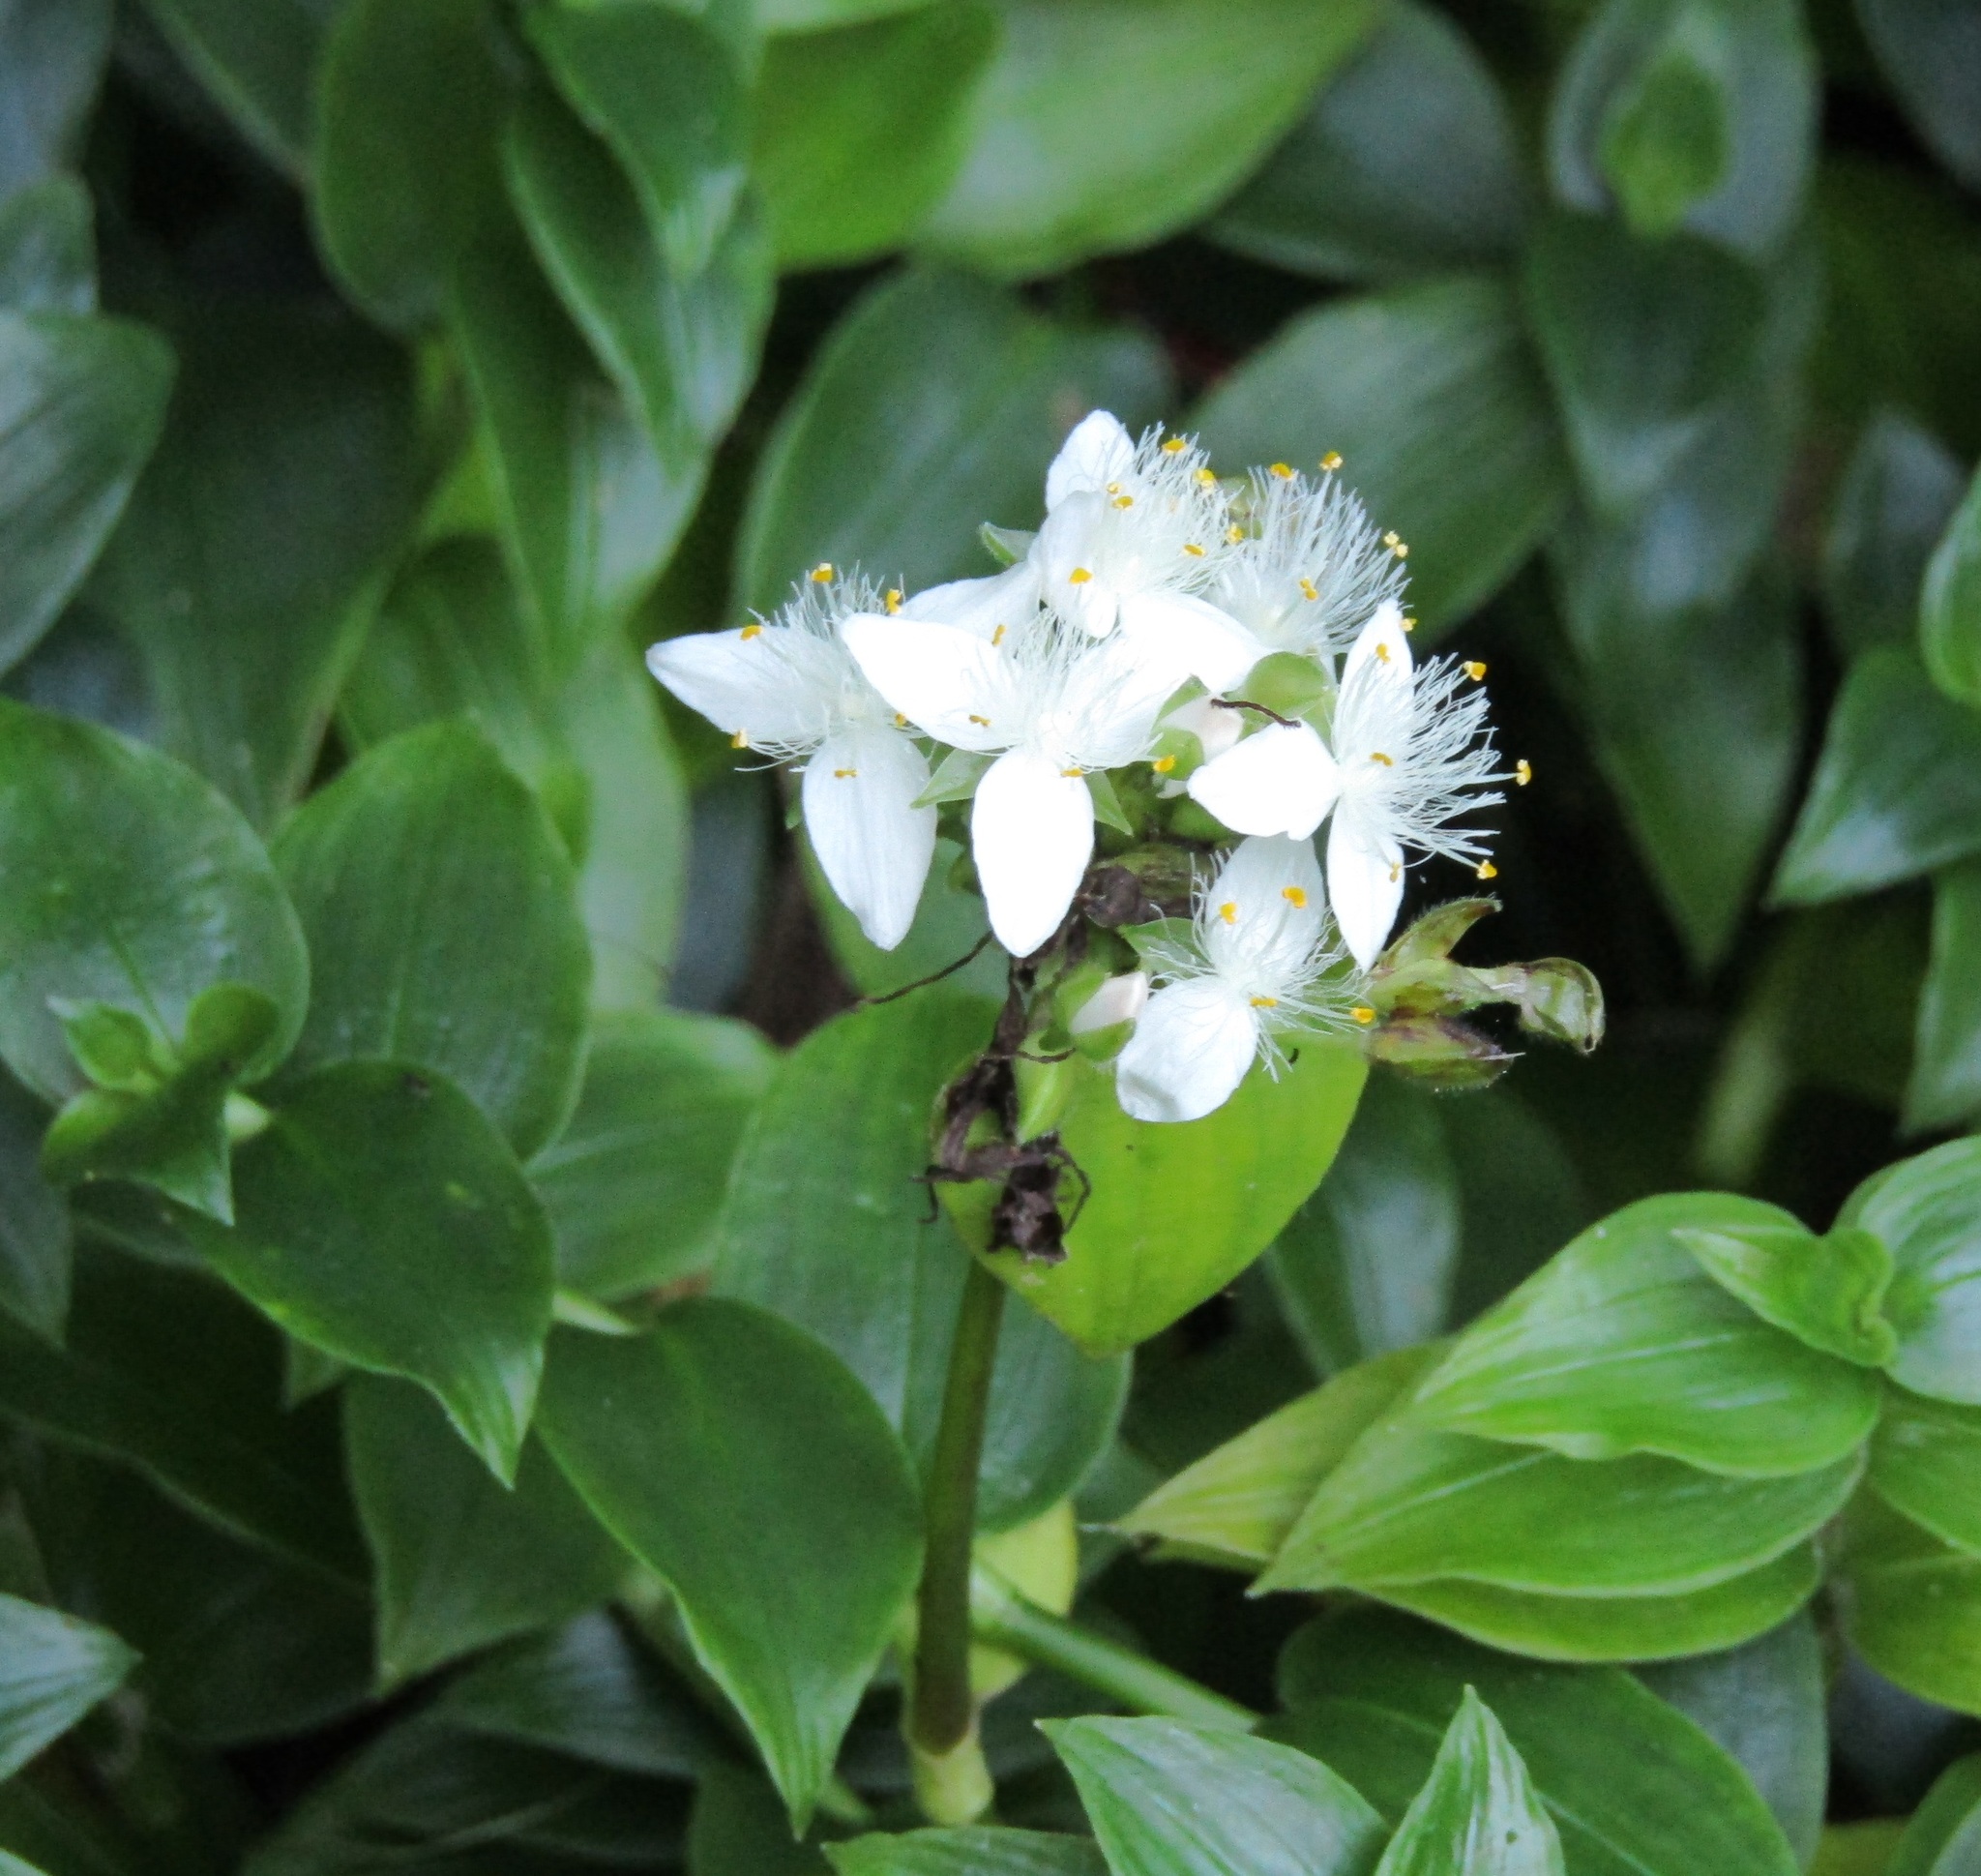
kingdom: Plantae
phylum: Tracheophyta
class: Liliopsida
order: Commelinales
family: Commelinaceae
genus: Tradescantia
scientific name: Tradescantia fluminensis
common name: Wandering-jew
